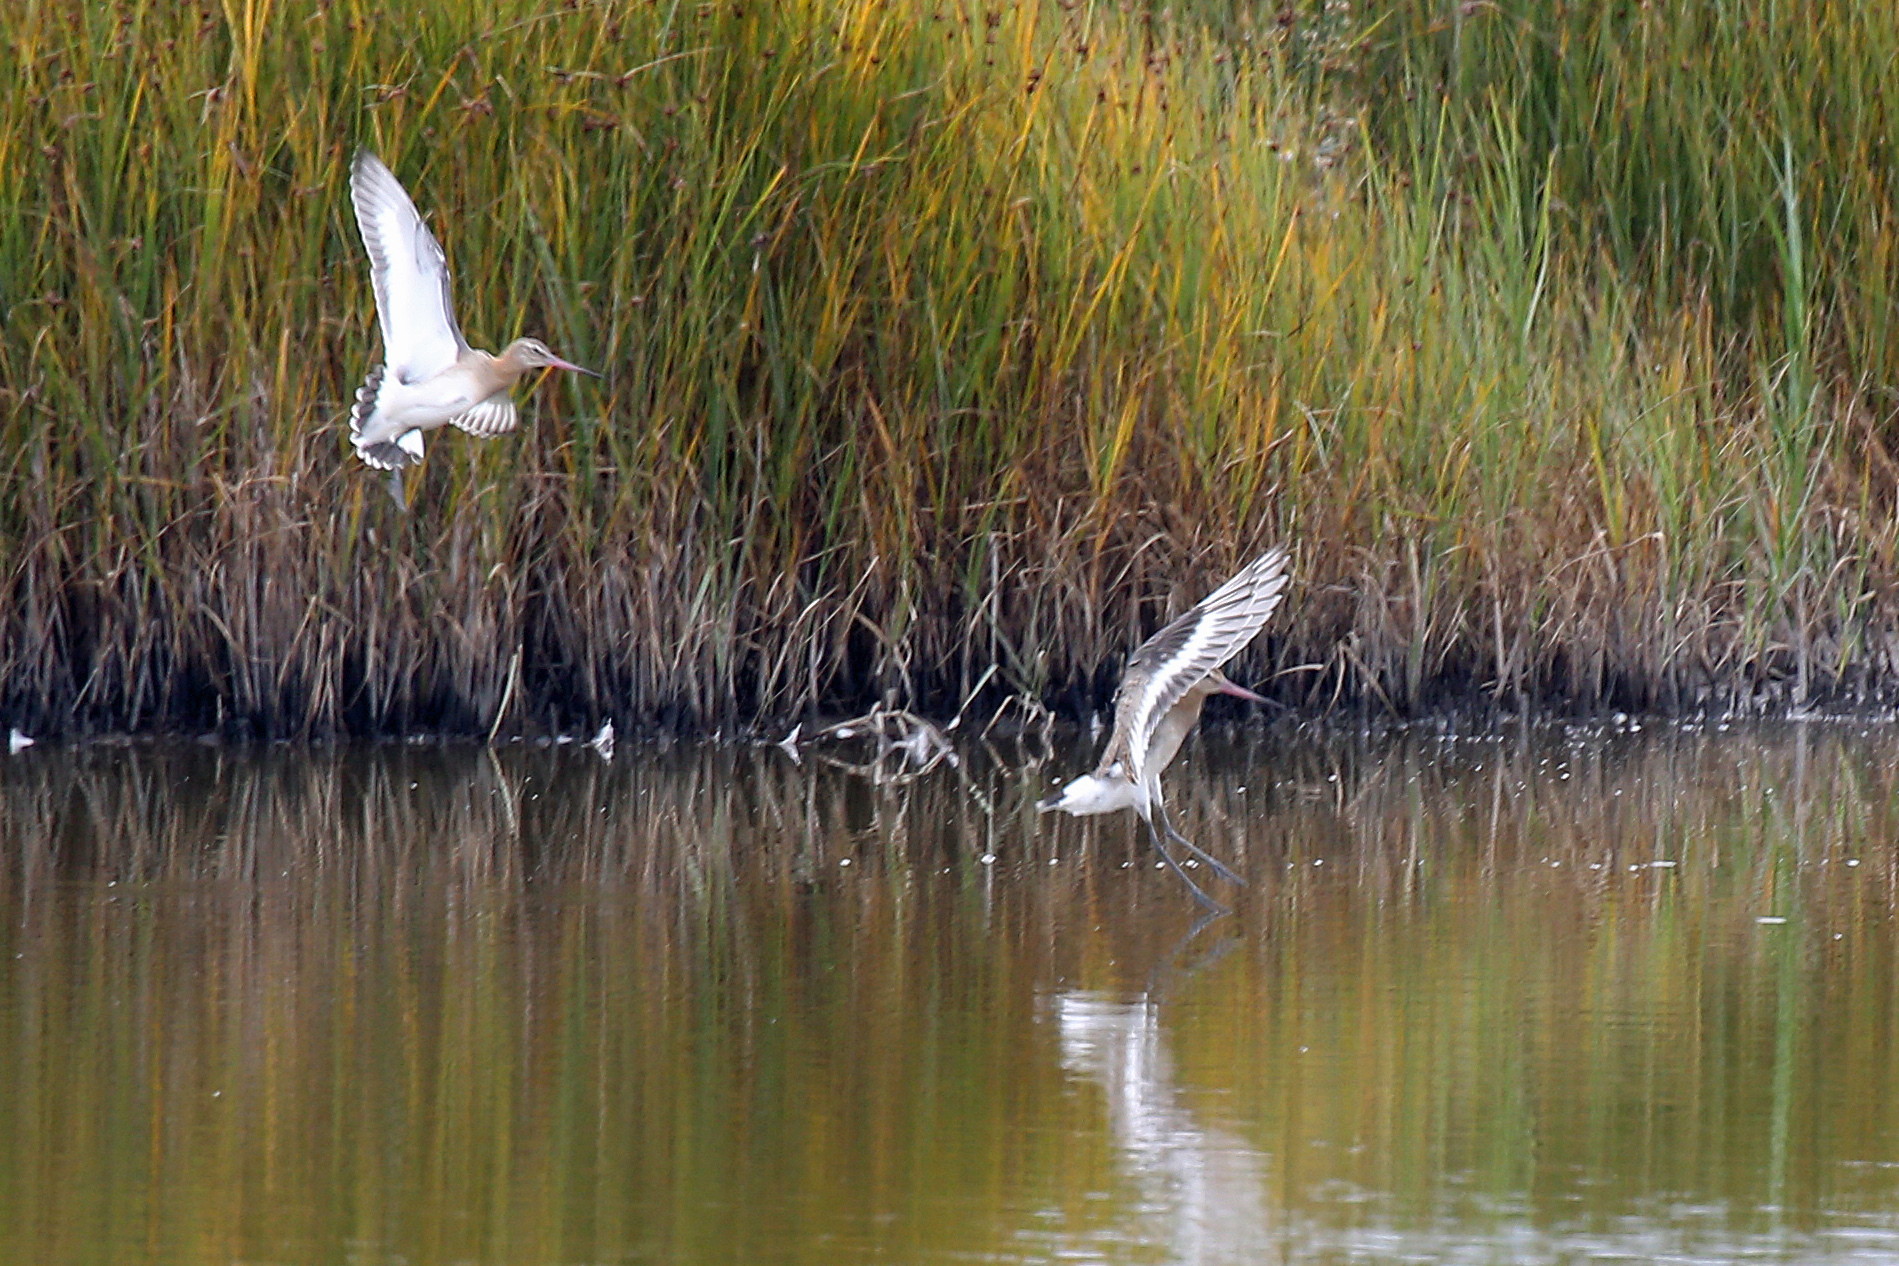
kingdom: Animalia
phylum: Chordata
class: Aves
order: Charadriiformes
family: Scolopacidae
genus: Limosa
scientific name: Limosa limosa
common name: Black-tailed godwit
